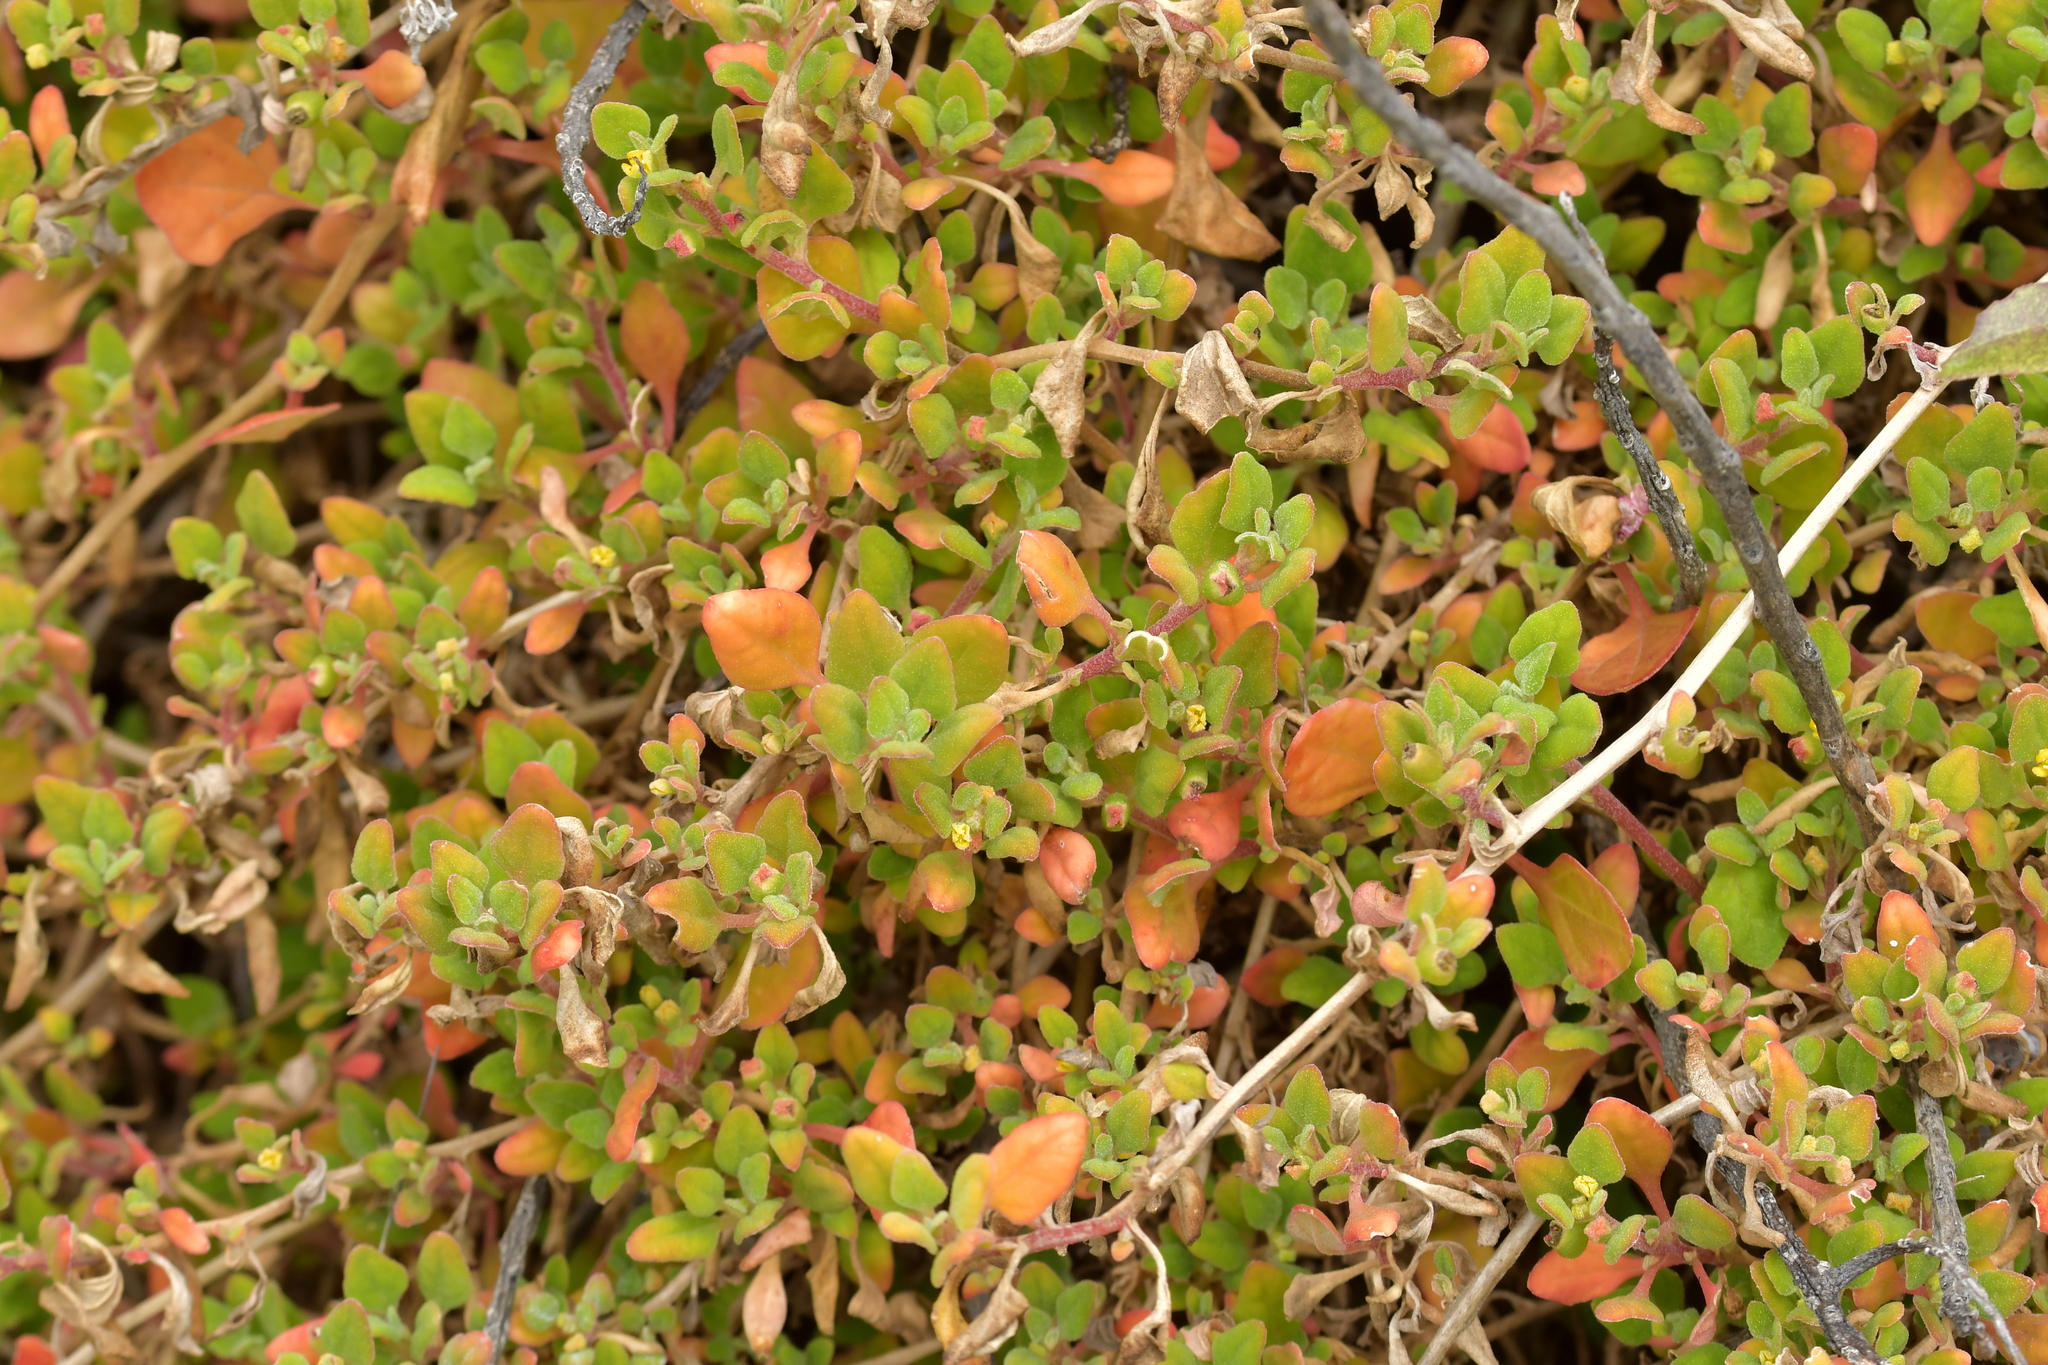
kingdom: Plantae
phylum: Tracheophyta
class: Magnoliopsida
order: Caryophyllales
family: Aizoaceae
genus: Tetragonia
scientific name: Tetragonia implexicoma
